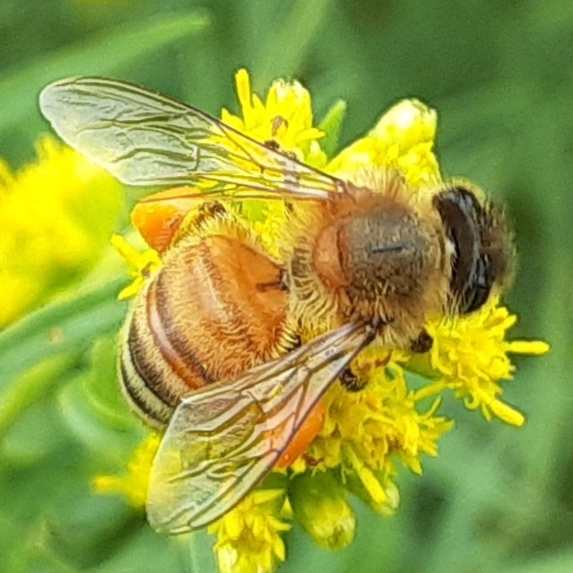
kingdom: Animalia
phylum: Arthropoda
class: Insecta
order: Hymenoptera
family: Apidae
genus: Apis
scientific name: Apis mellifera
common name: Honey bee
